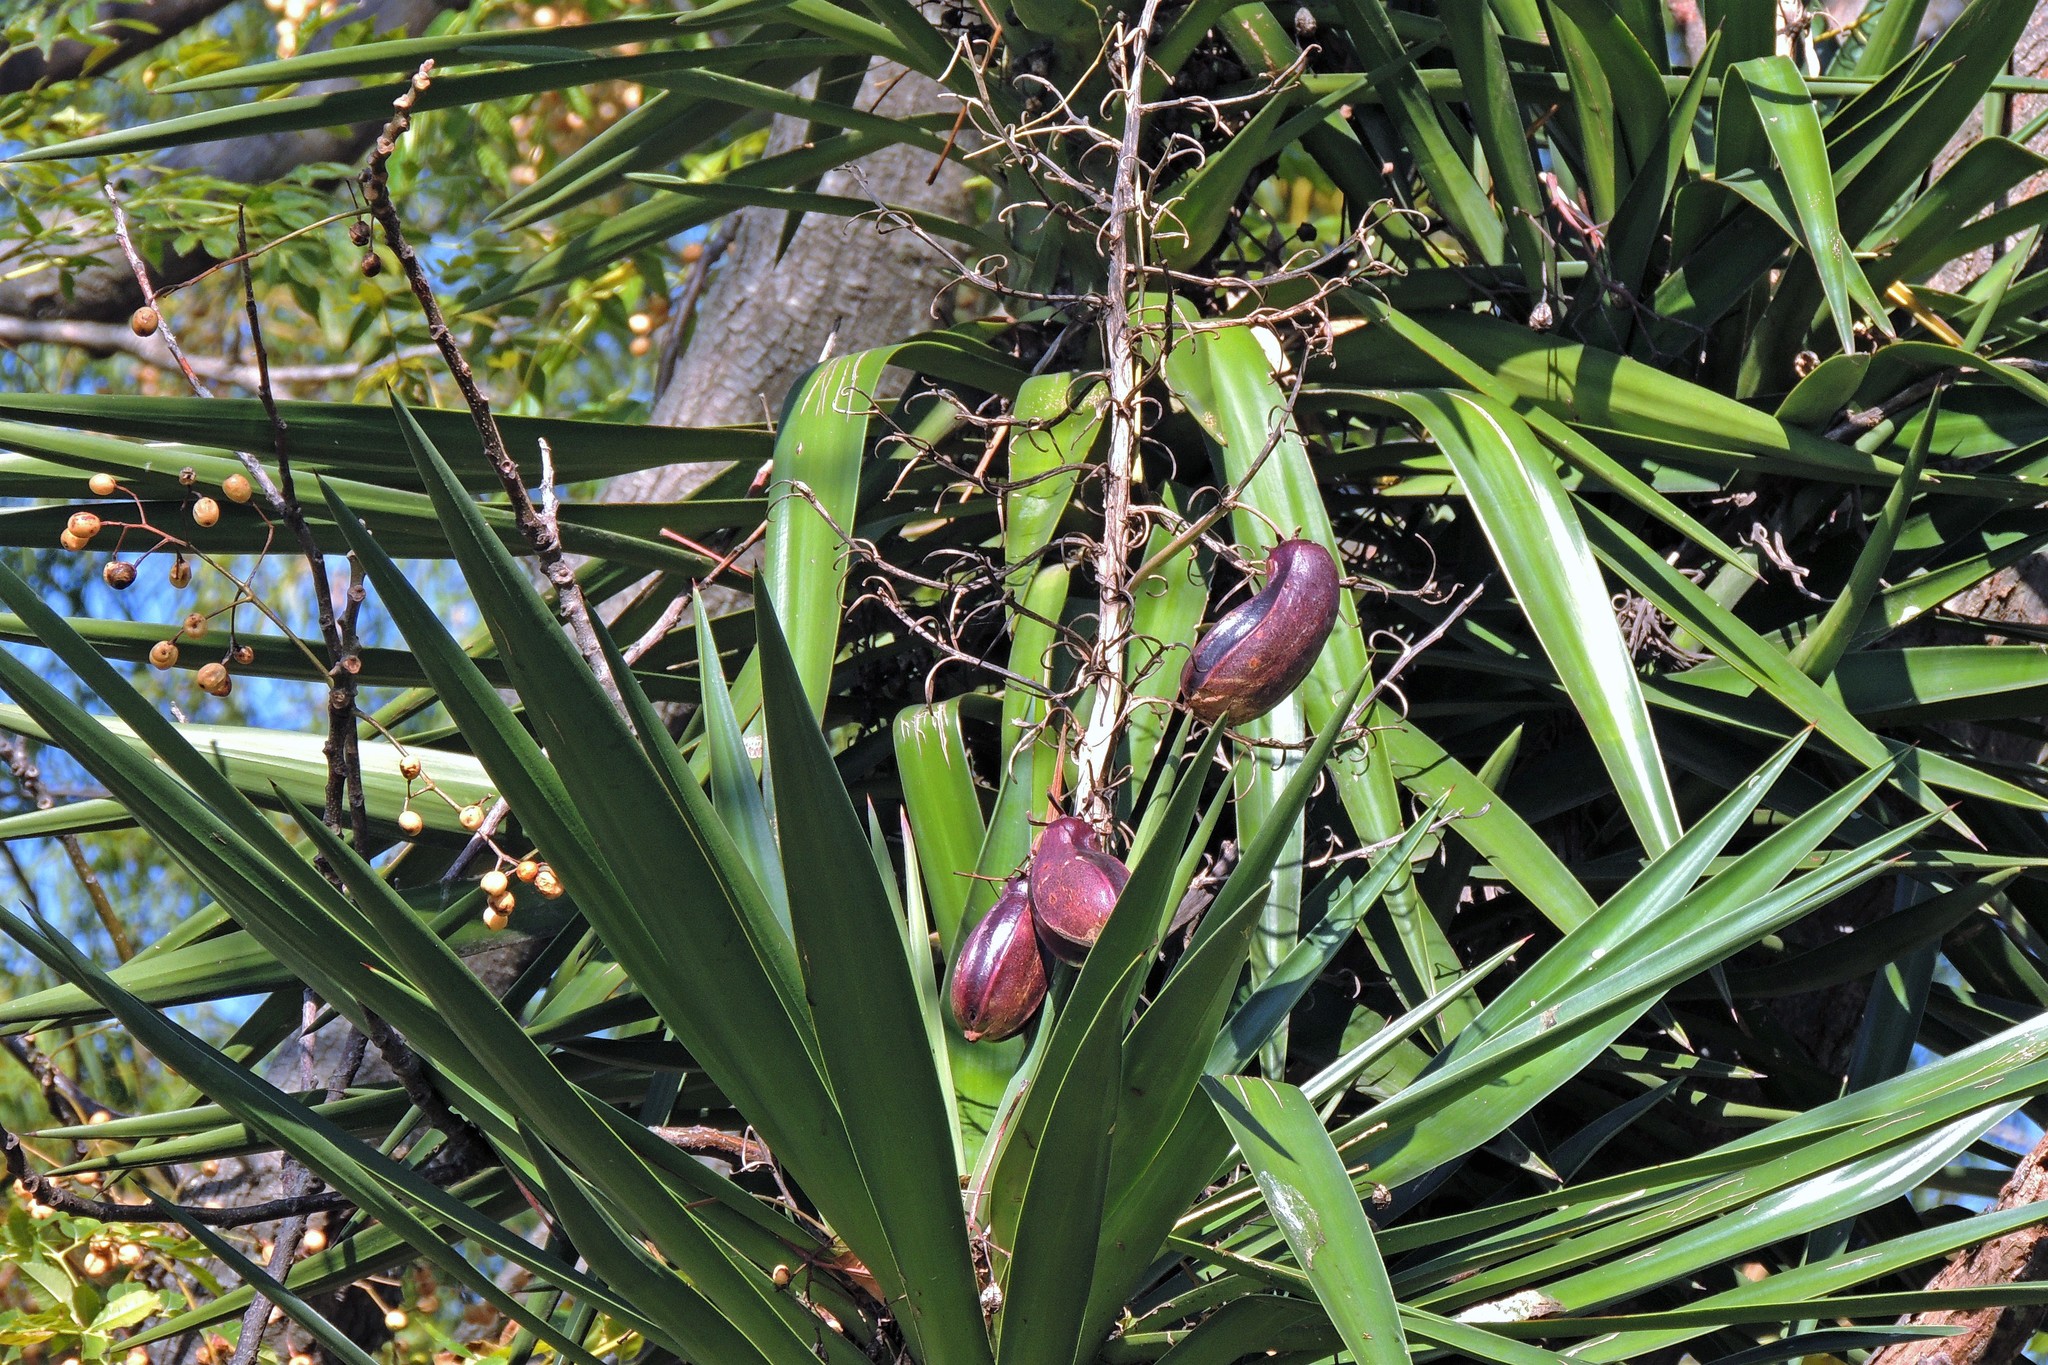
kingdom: Plantae
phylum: Tracheophyta
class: Liliopsida
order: Asparagales
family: Asparagaceae
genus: Yucca
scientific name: Yucca aloifolia
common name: Aloe yucca
